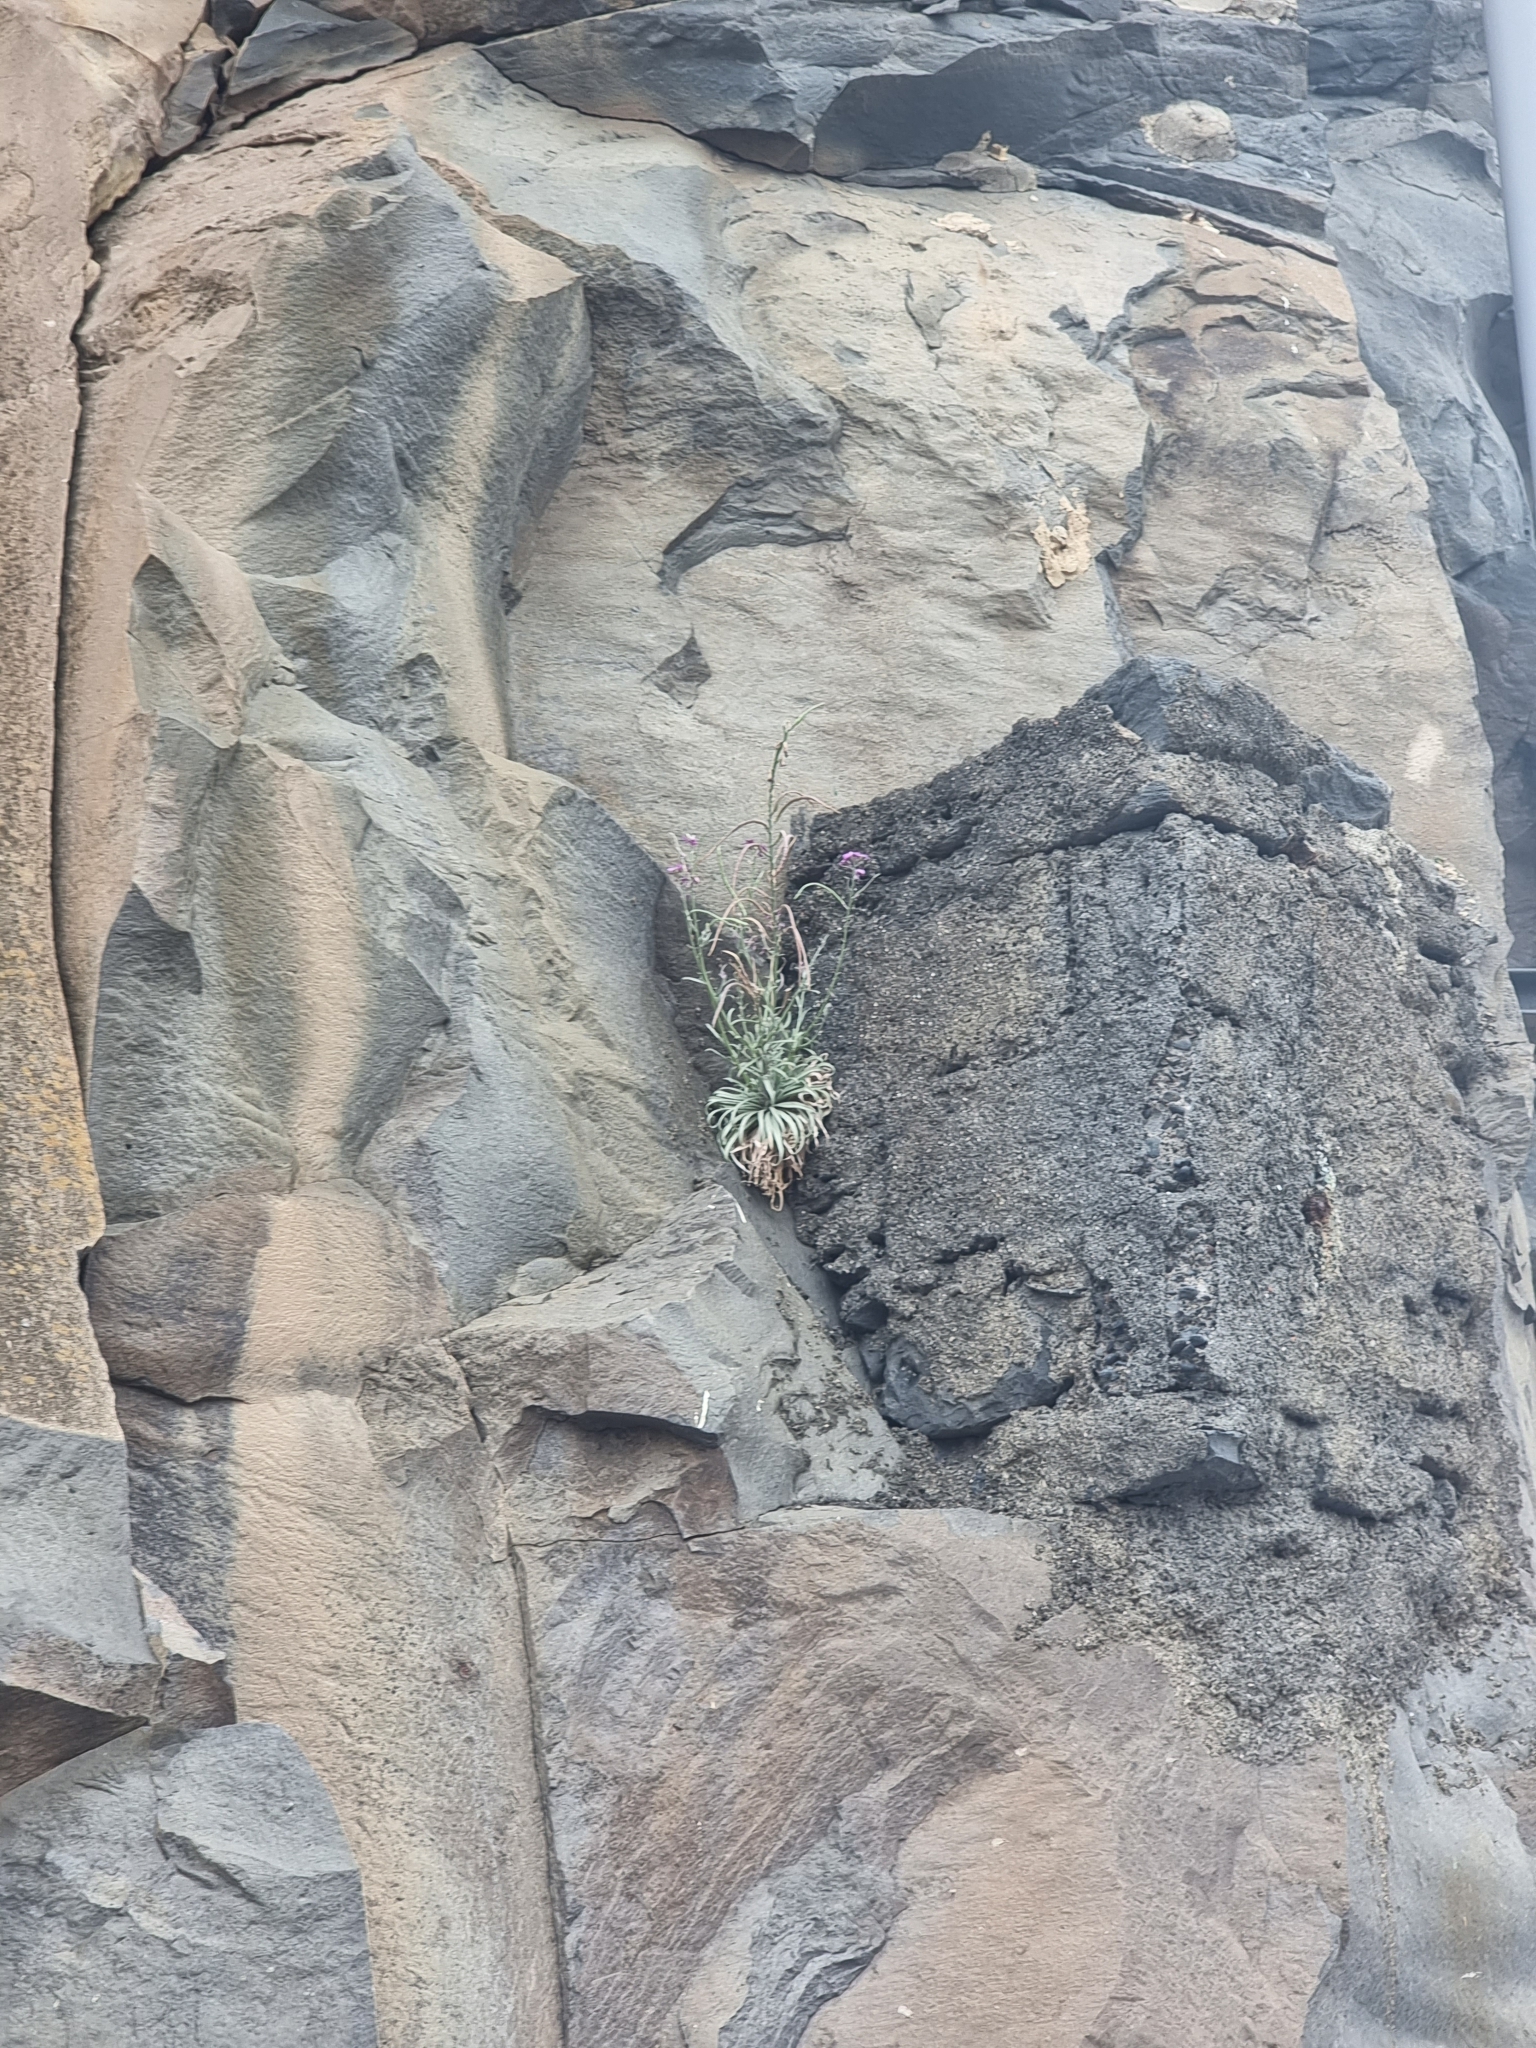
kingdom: Plantae
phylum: Tracheophyta
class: Magnoliopsida
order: Brassicales
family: Brassicaceae
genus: Matthiola
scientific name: Matthiola maderensis
